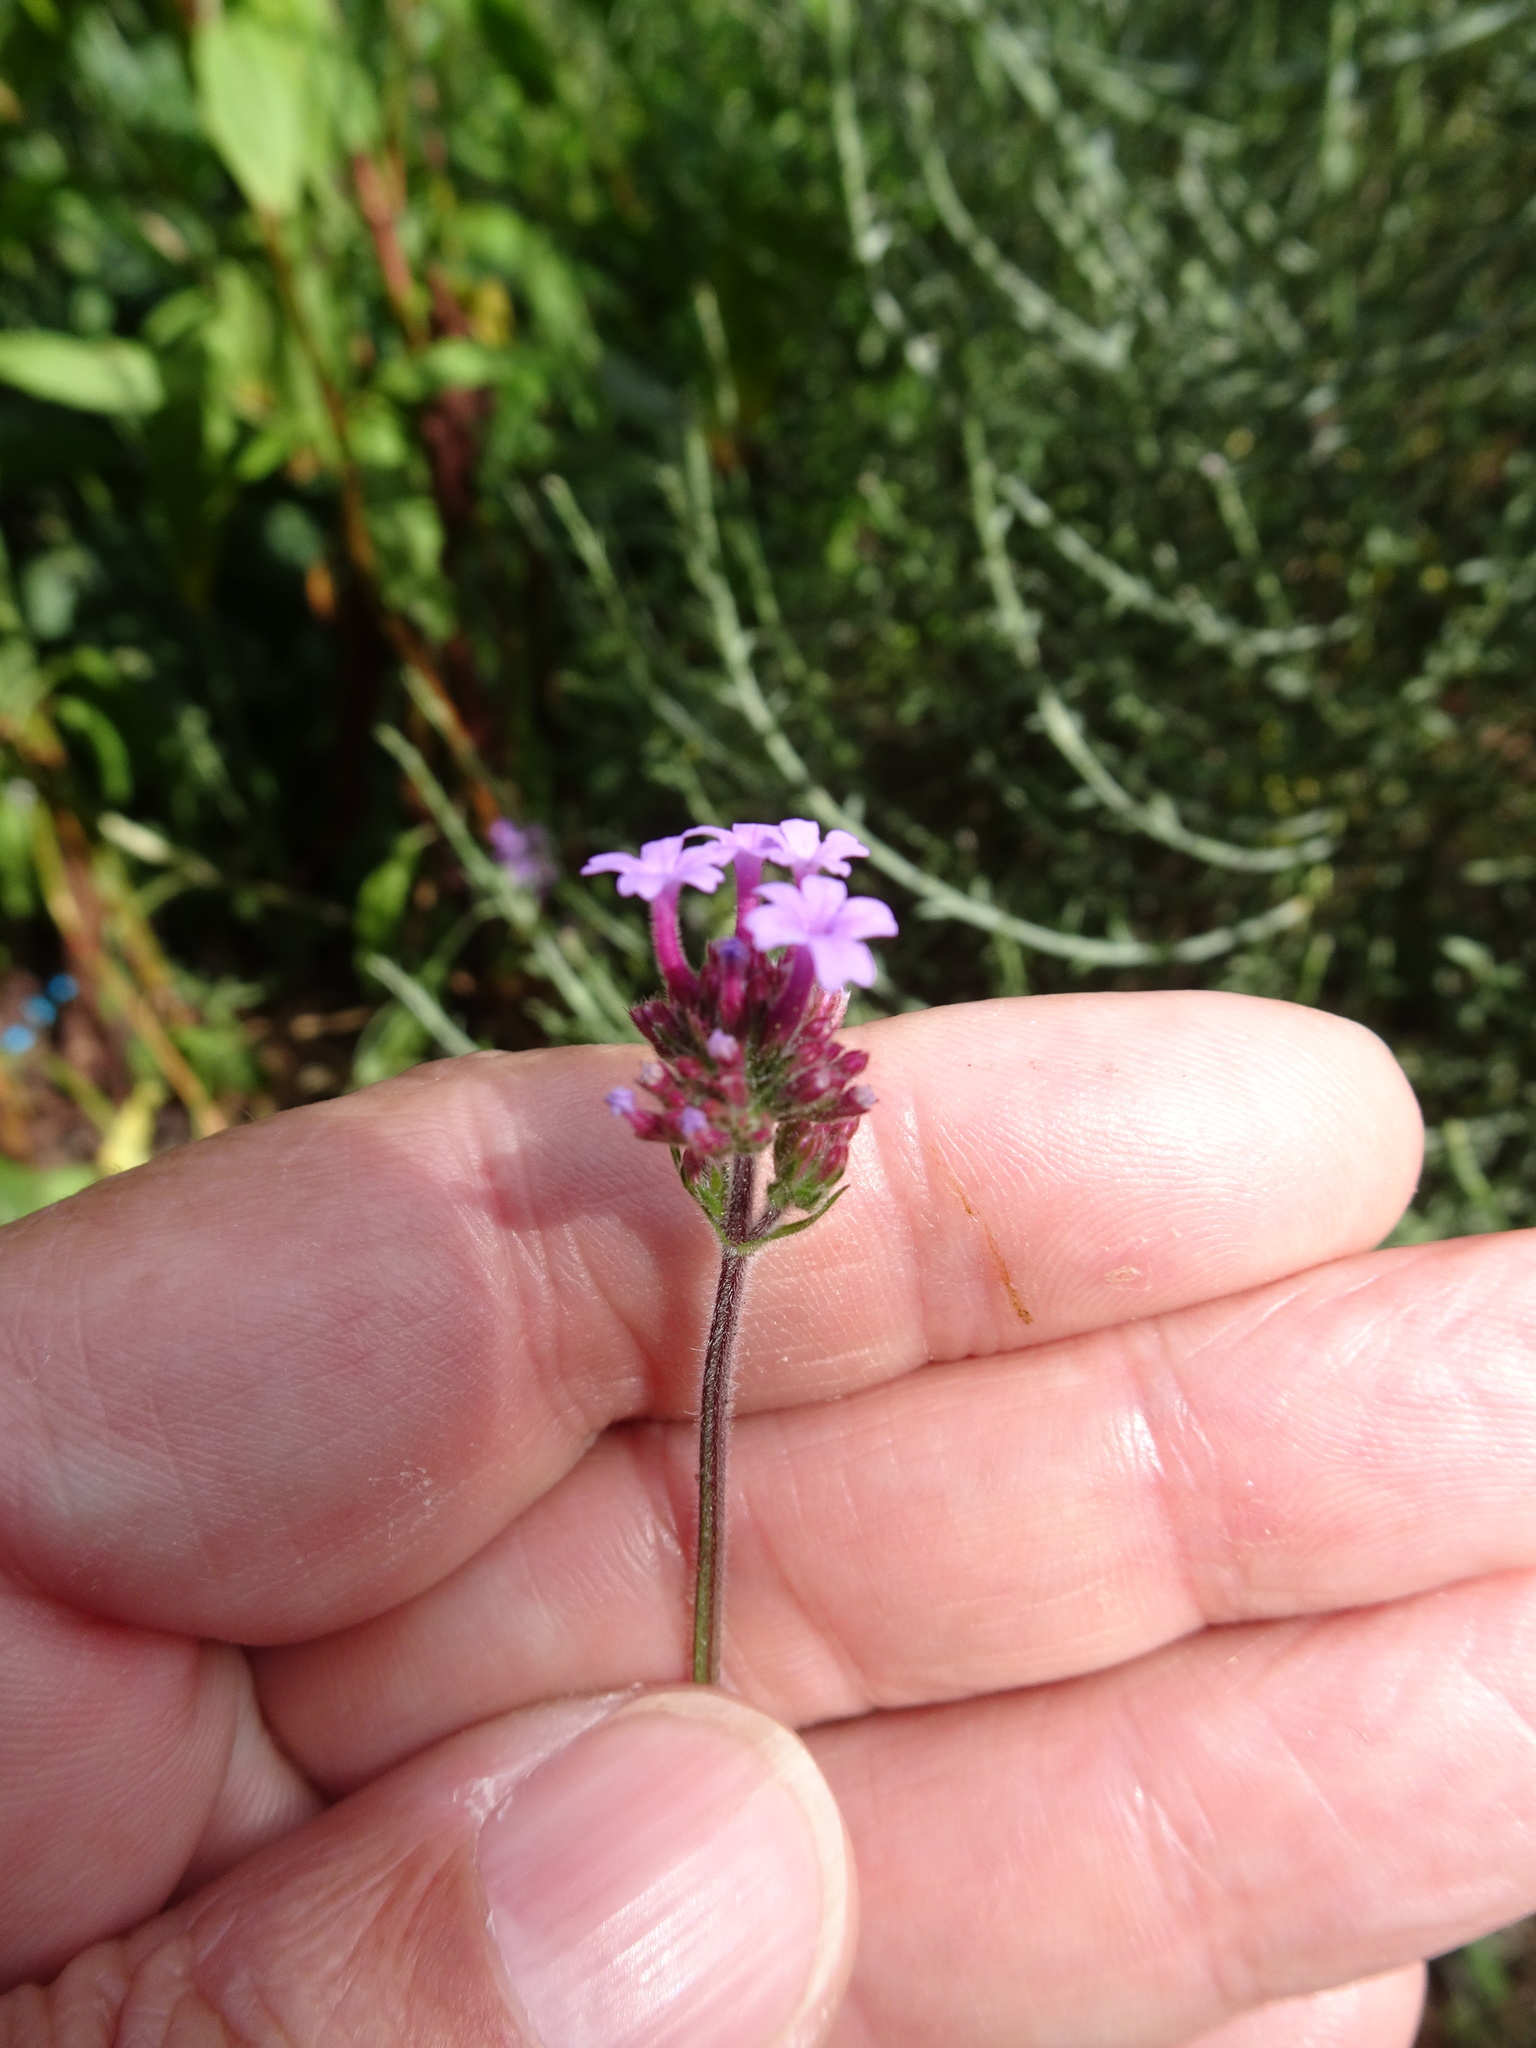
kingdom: Plantae
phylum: Tracheophyta
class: Magnoliopsida
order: Lamiales
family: Verbenaceae
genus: Verbena
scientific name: Verbena bonariensis
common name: Purpletop vervain
